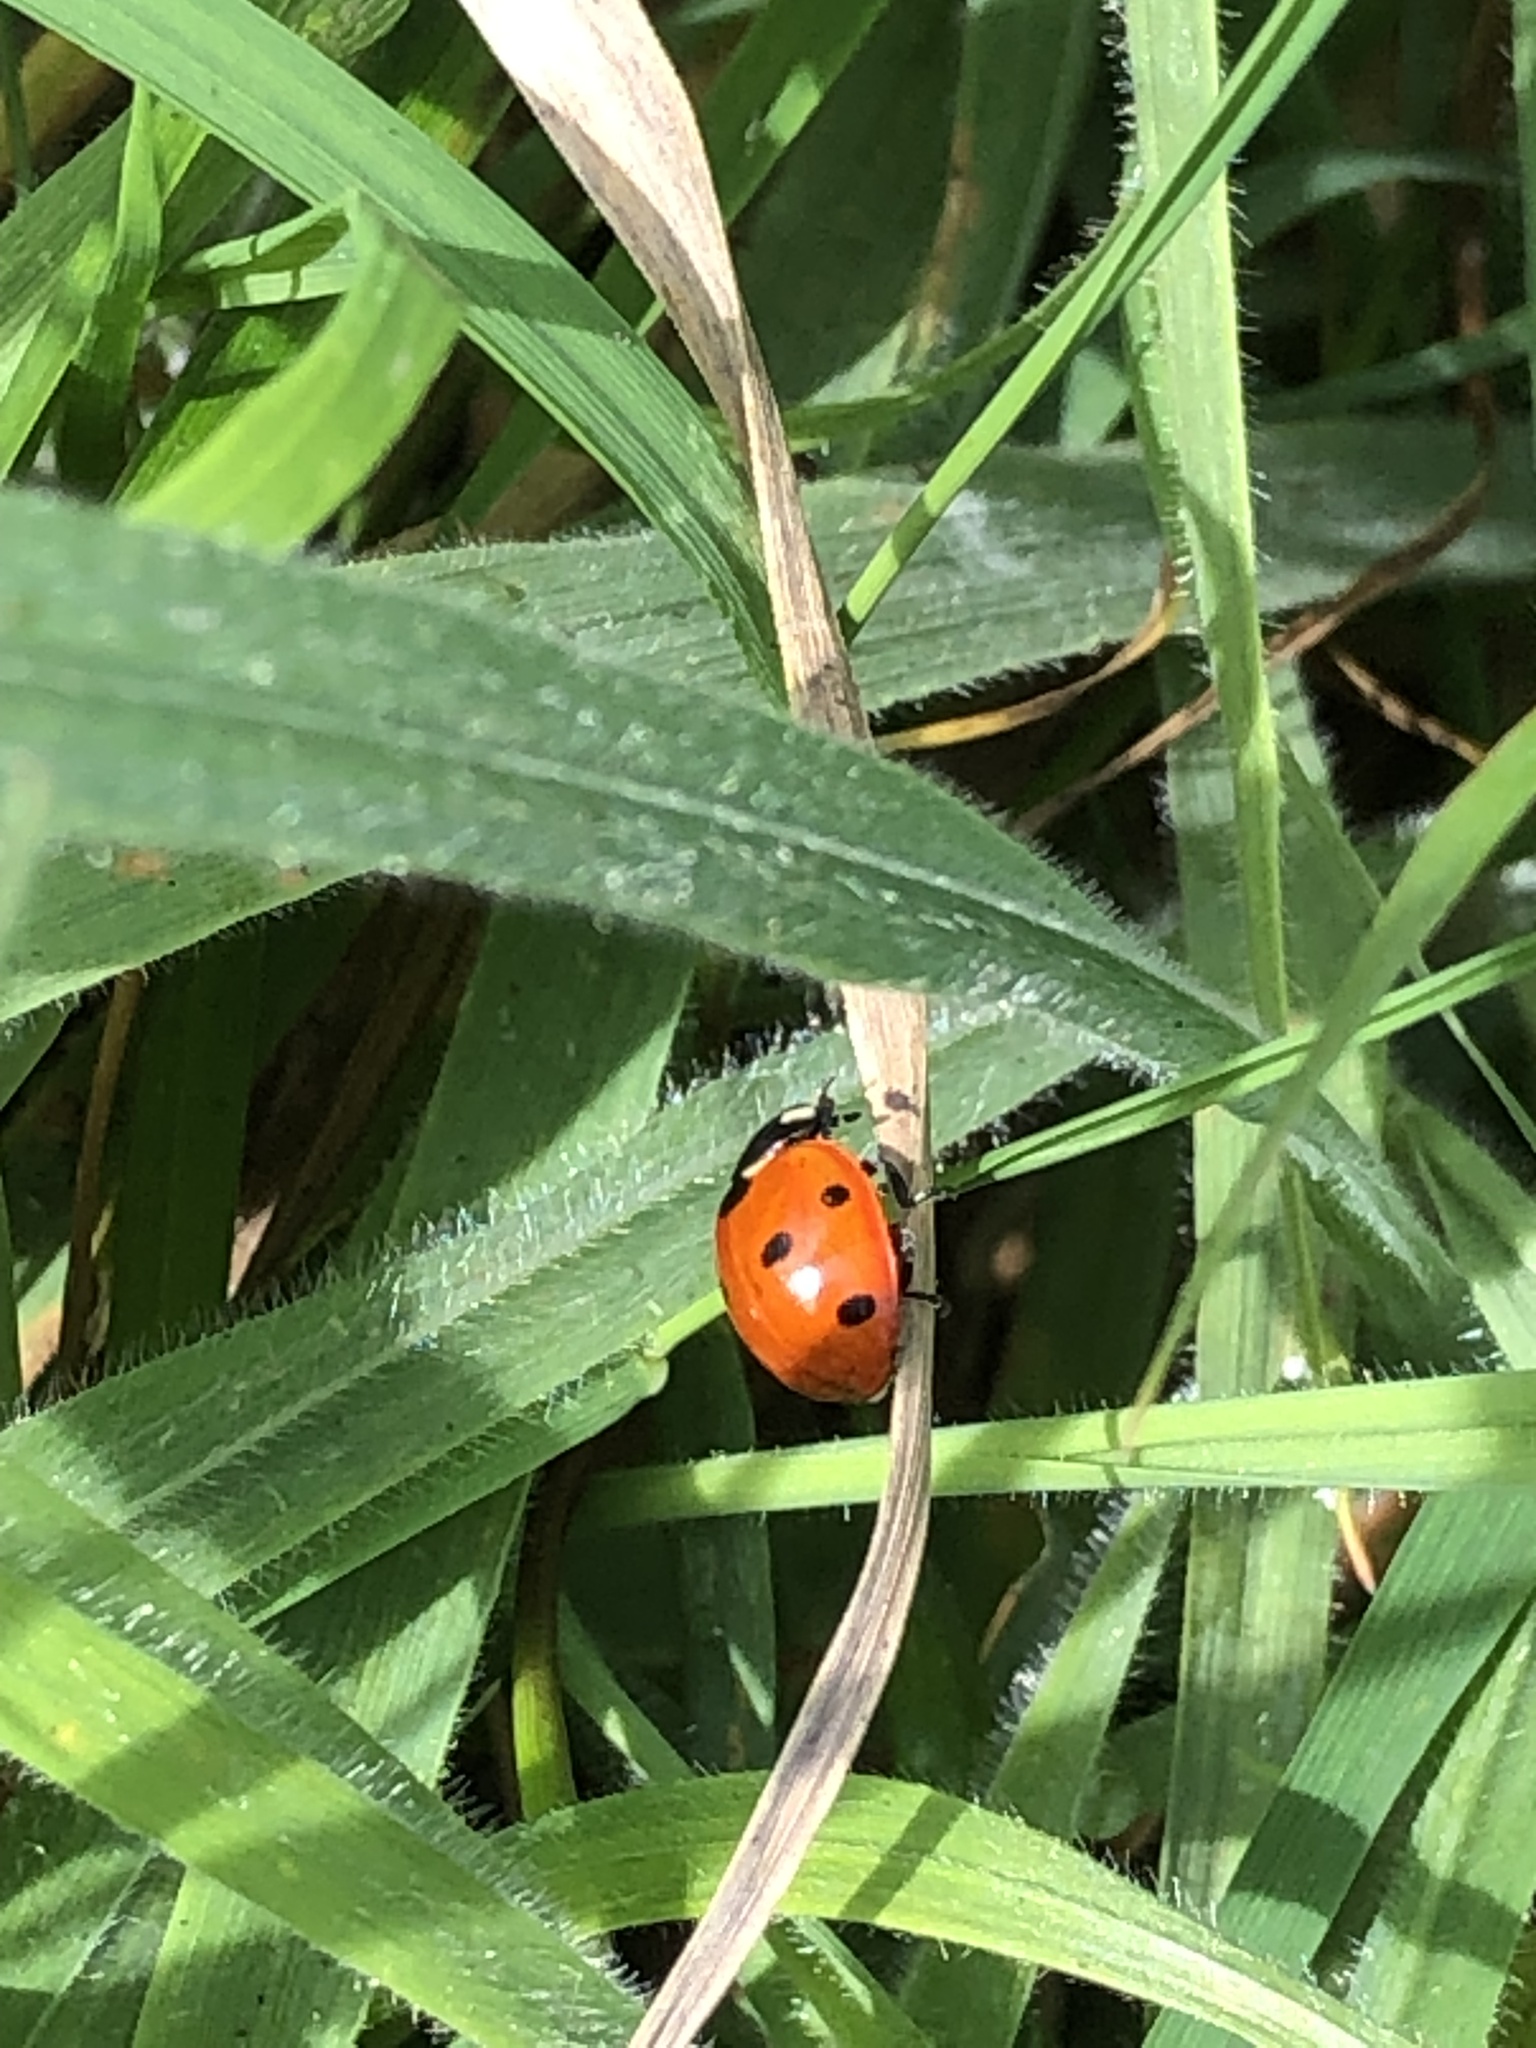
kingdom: Animalia
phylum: Arthropoda
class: Insecta
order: Coleoptera
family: Coccinellidae
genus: Coccinella
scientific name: Coccinella septempunctata
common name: Sevenspotted lady beetle
